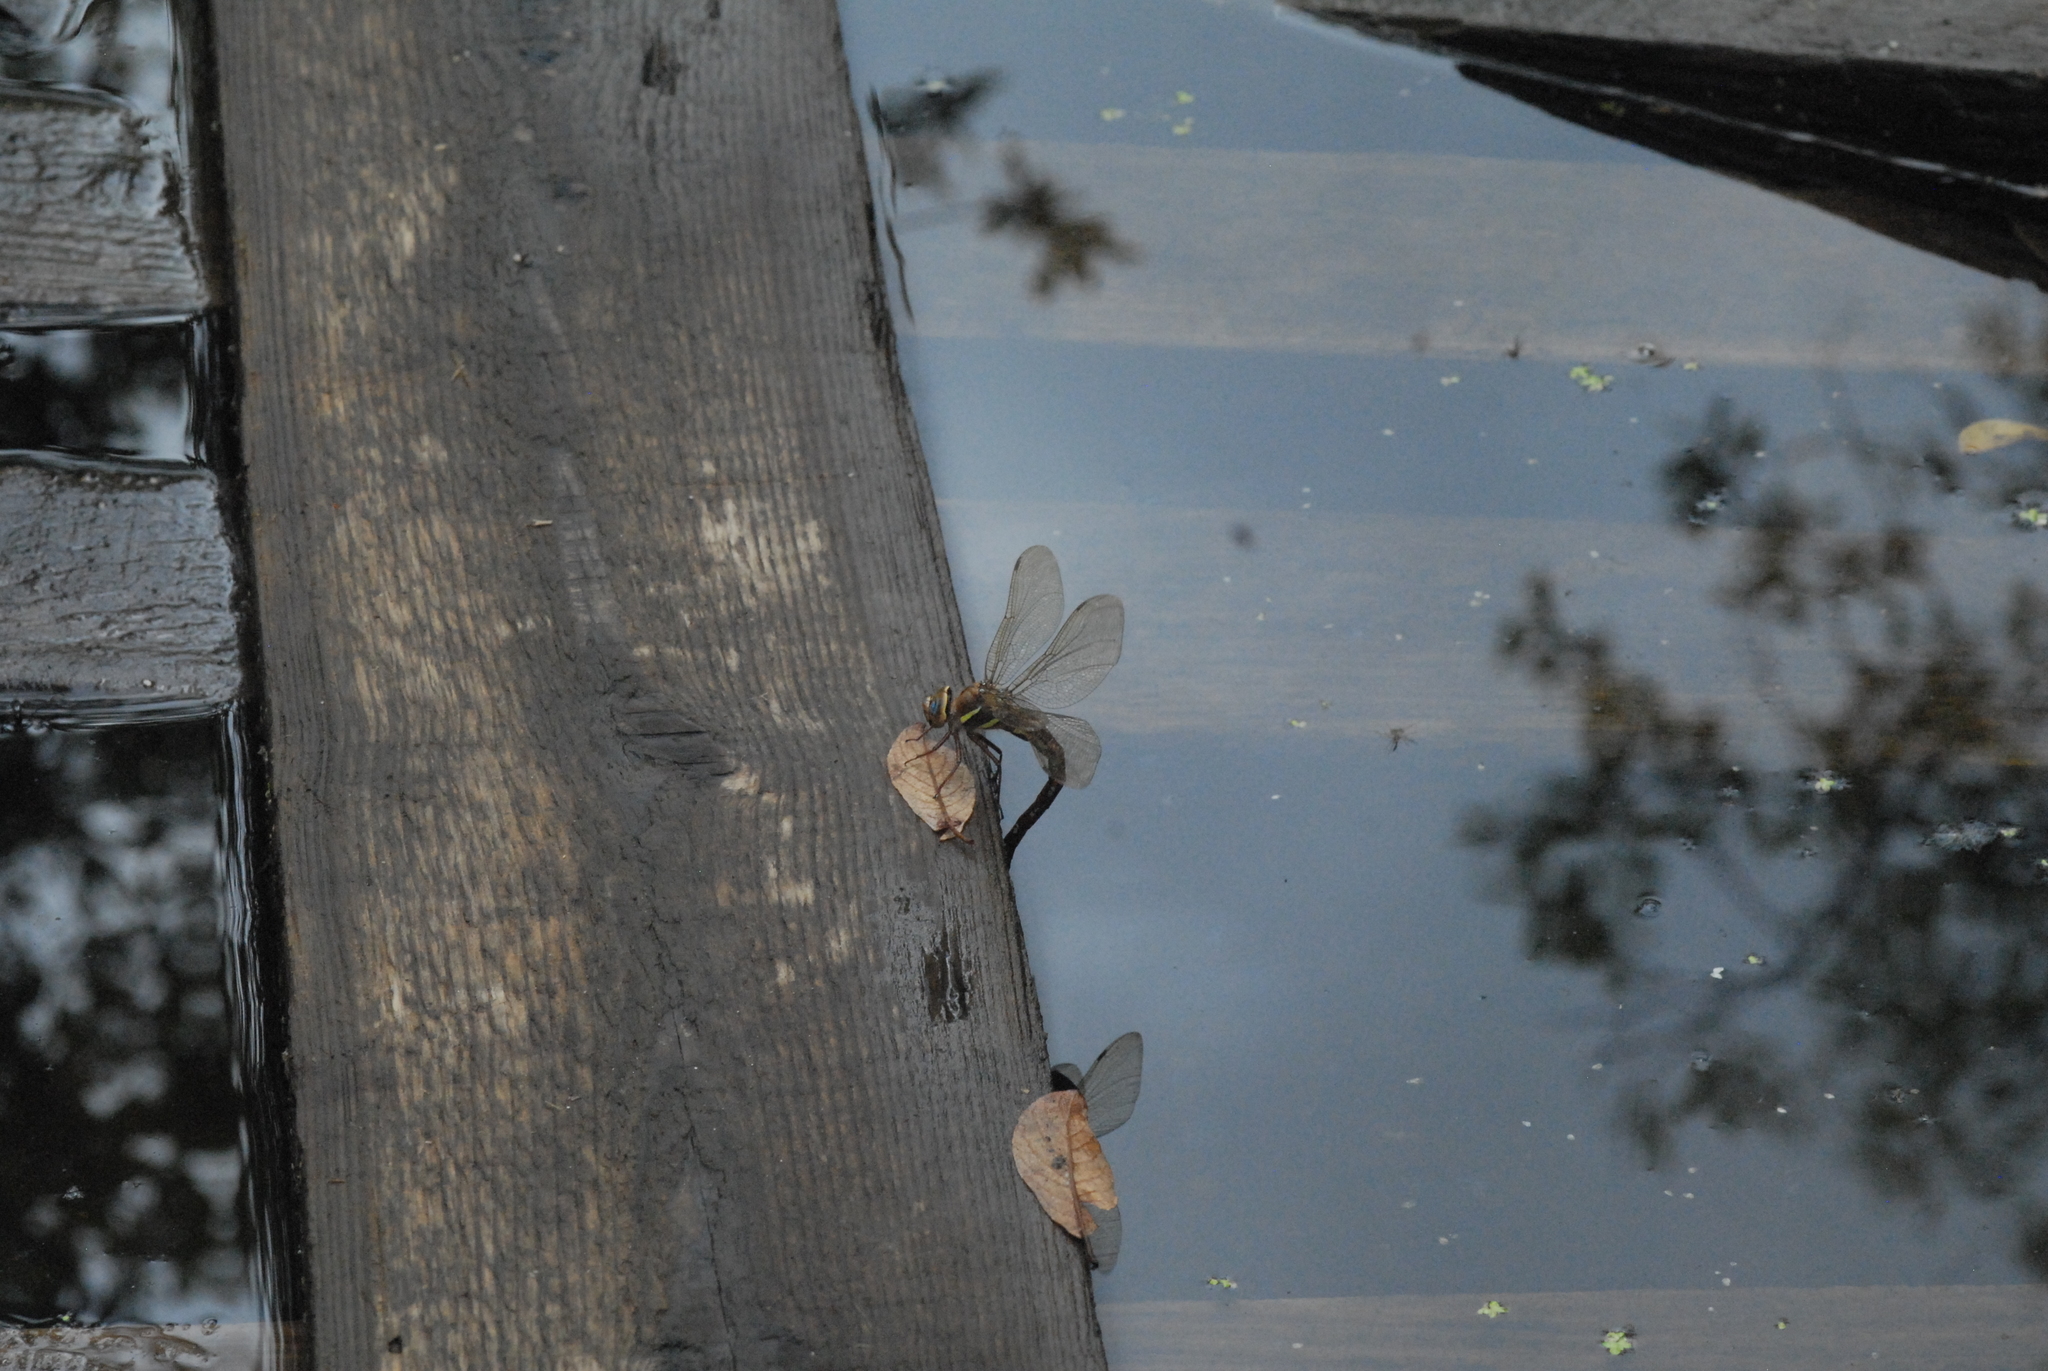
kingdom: Animalia
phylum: Arthropoda
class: Insecta
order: Odonata
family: Aeshnidae
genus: Aeshna
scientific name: Aeshna grandis
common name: Brown hawker
